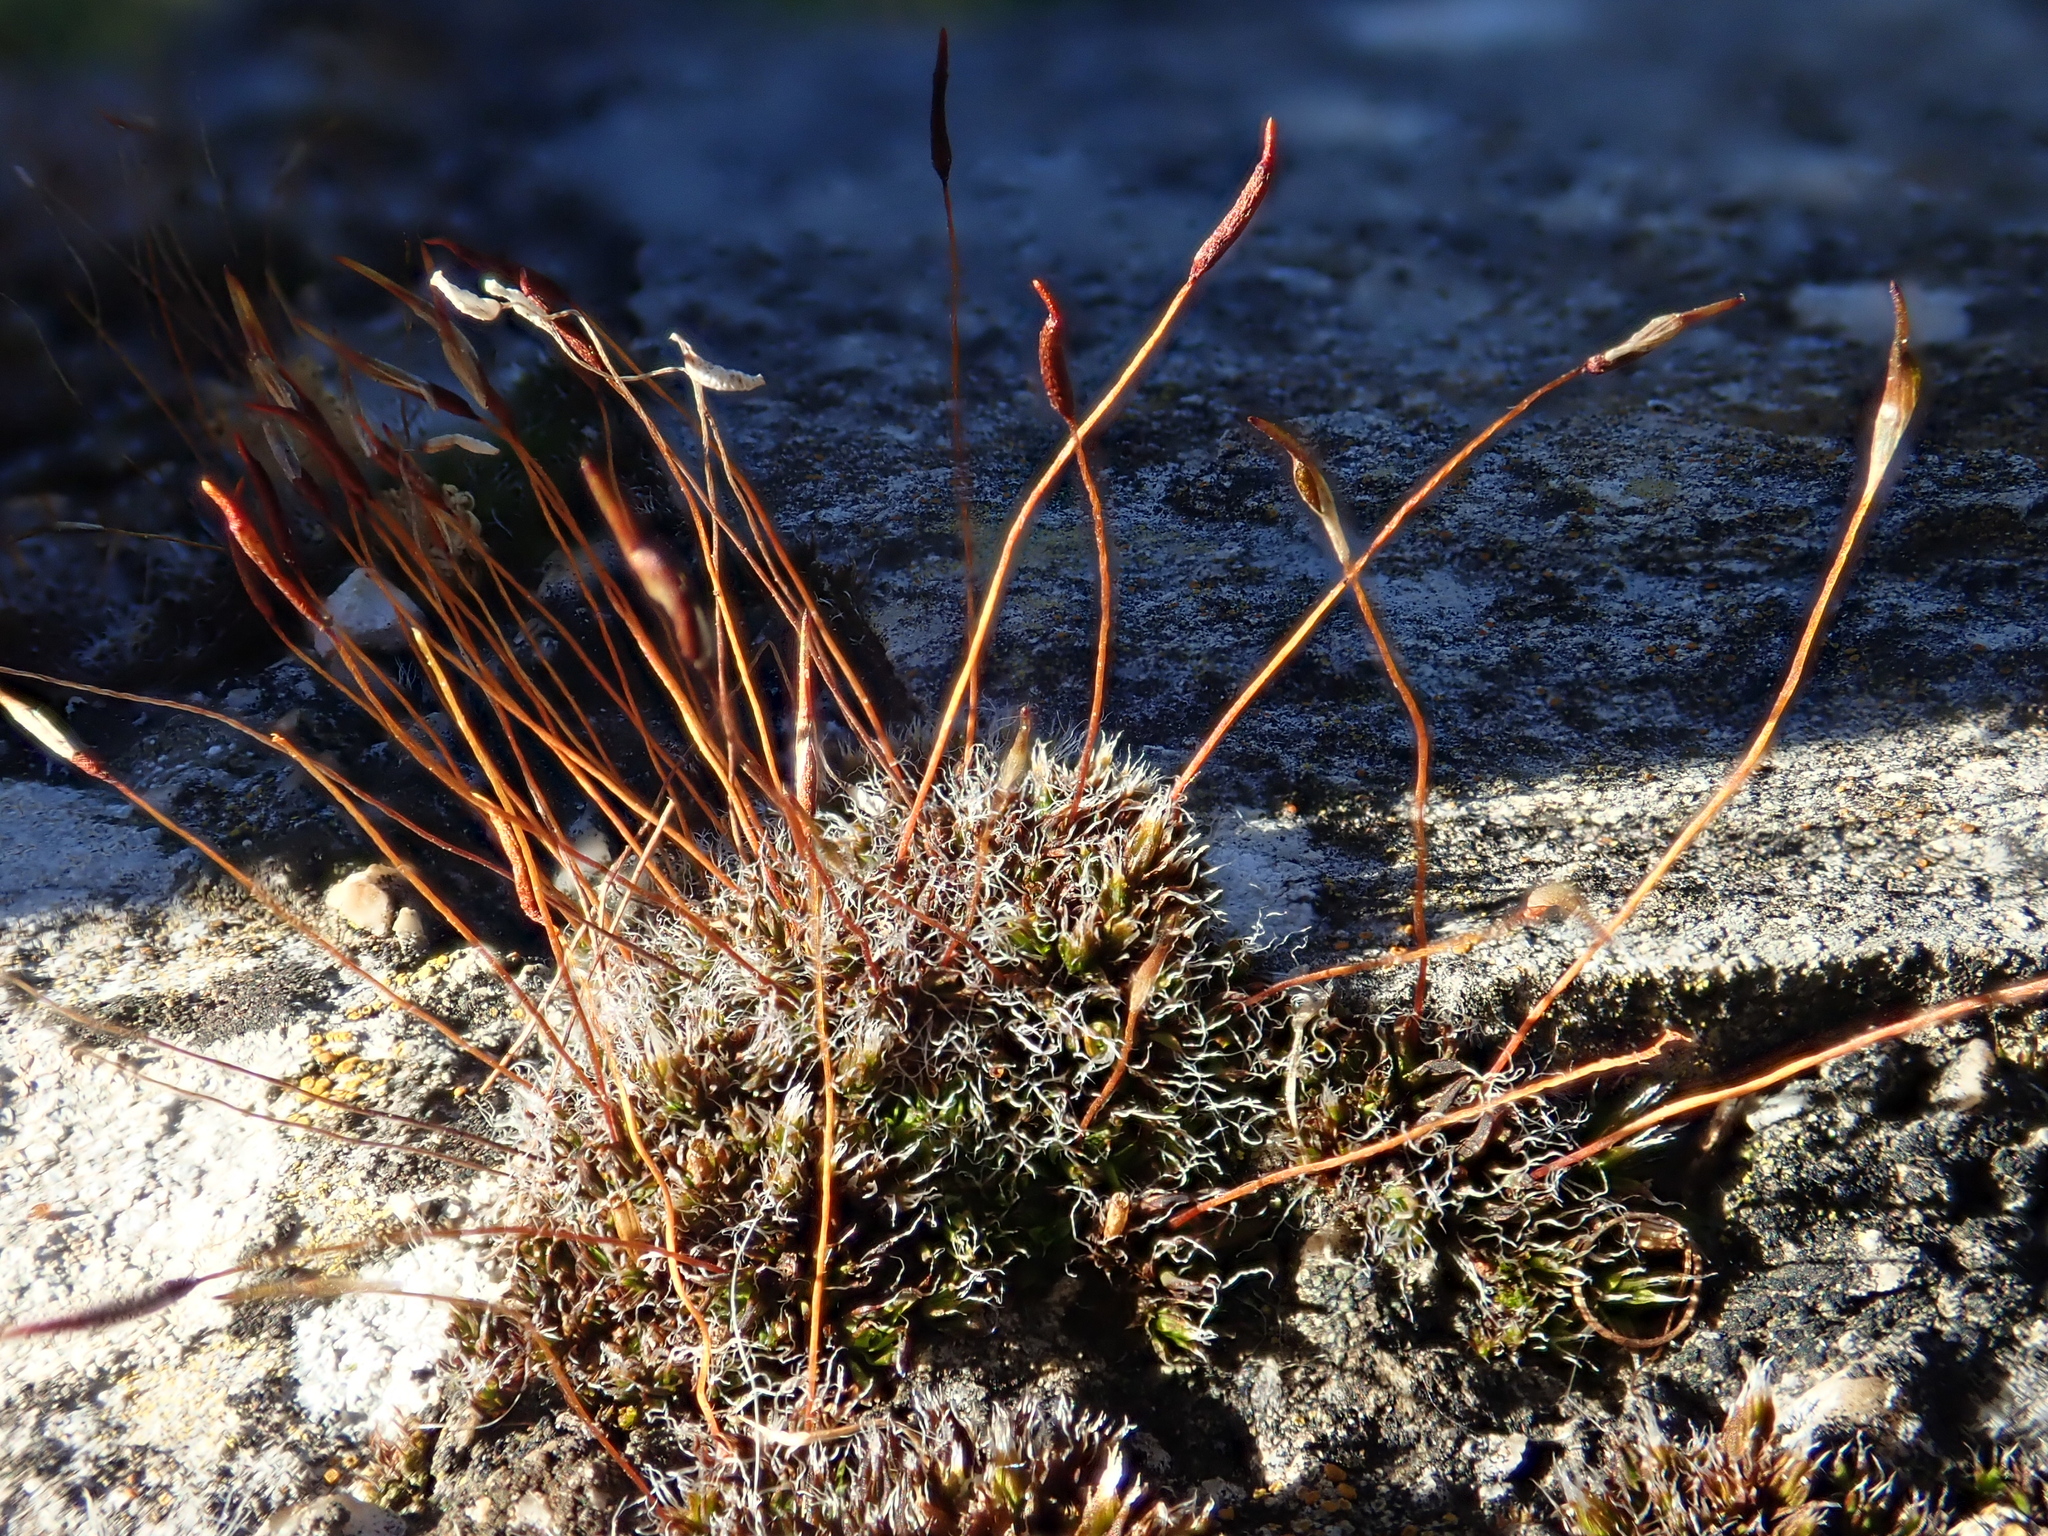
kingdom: Plantae
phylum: Bryophyta
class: Bryopsida
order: Pottiales
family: Pottiaceae
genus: Tortula
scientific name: Tortula muralis
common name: Wall screw-moss
